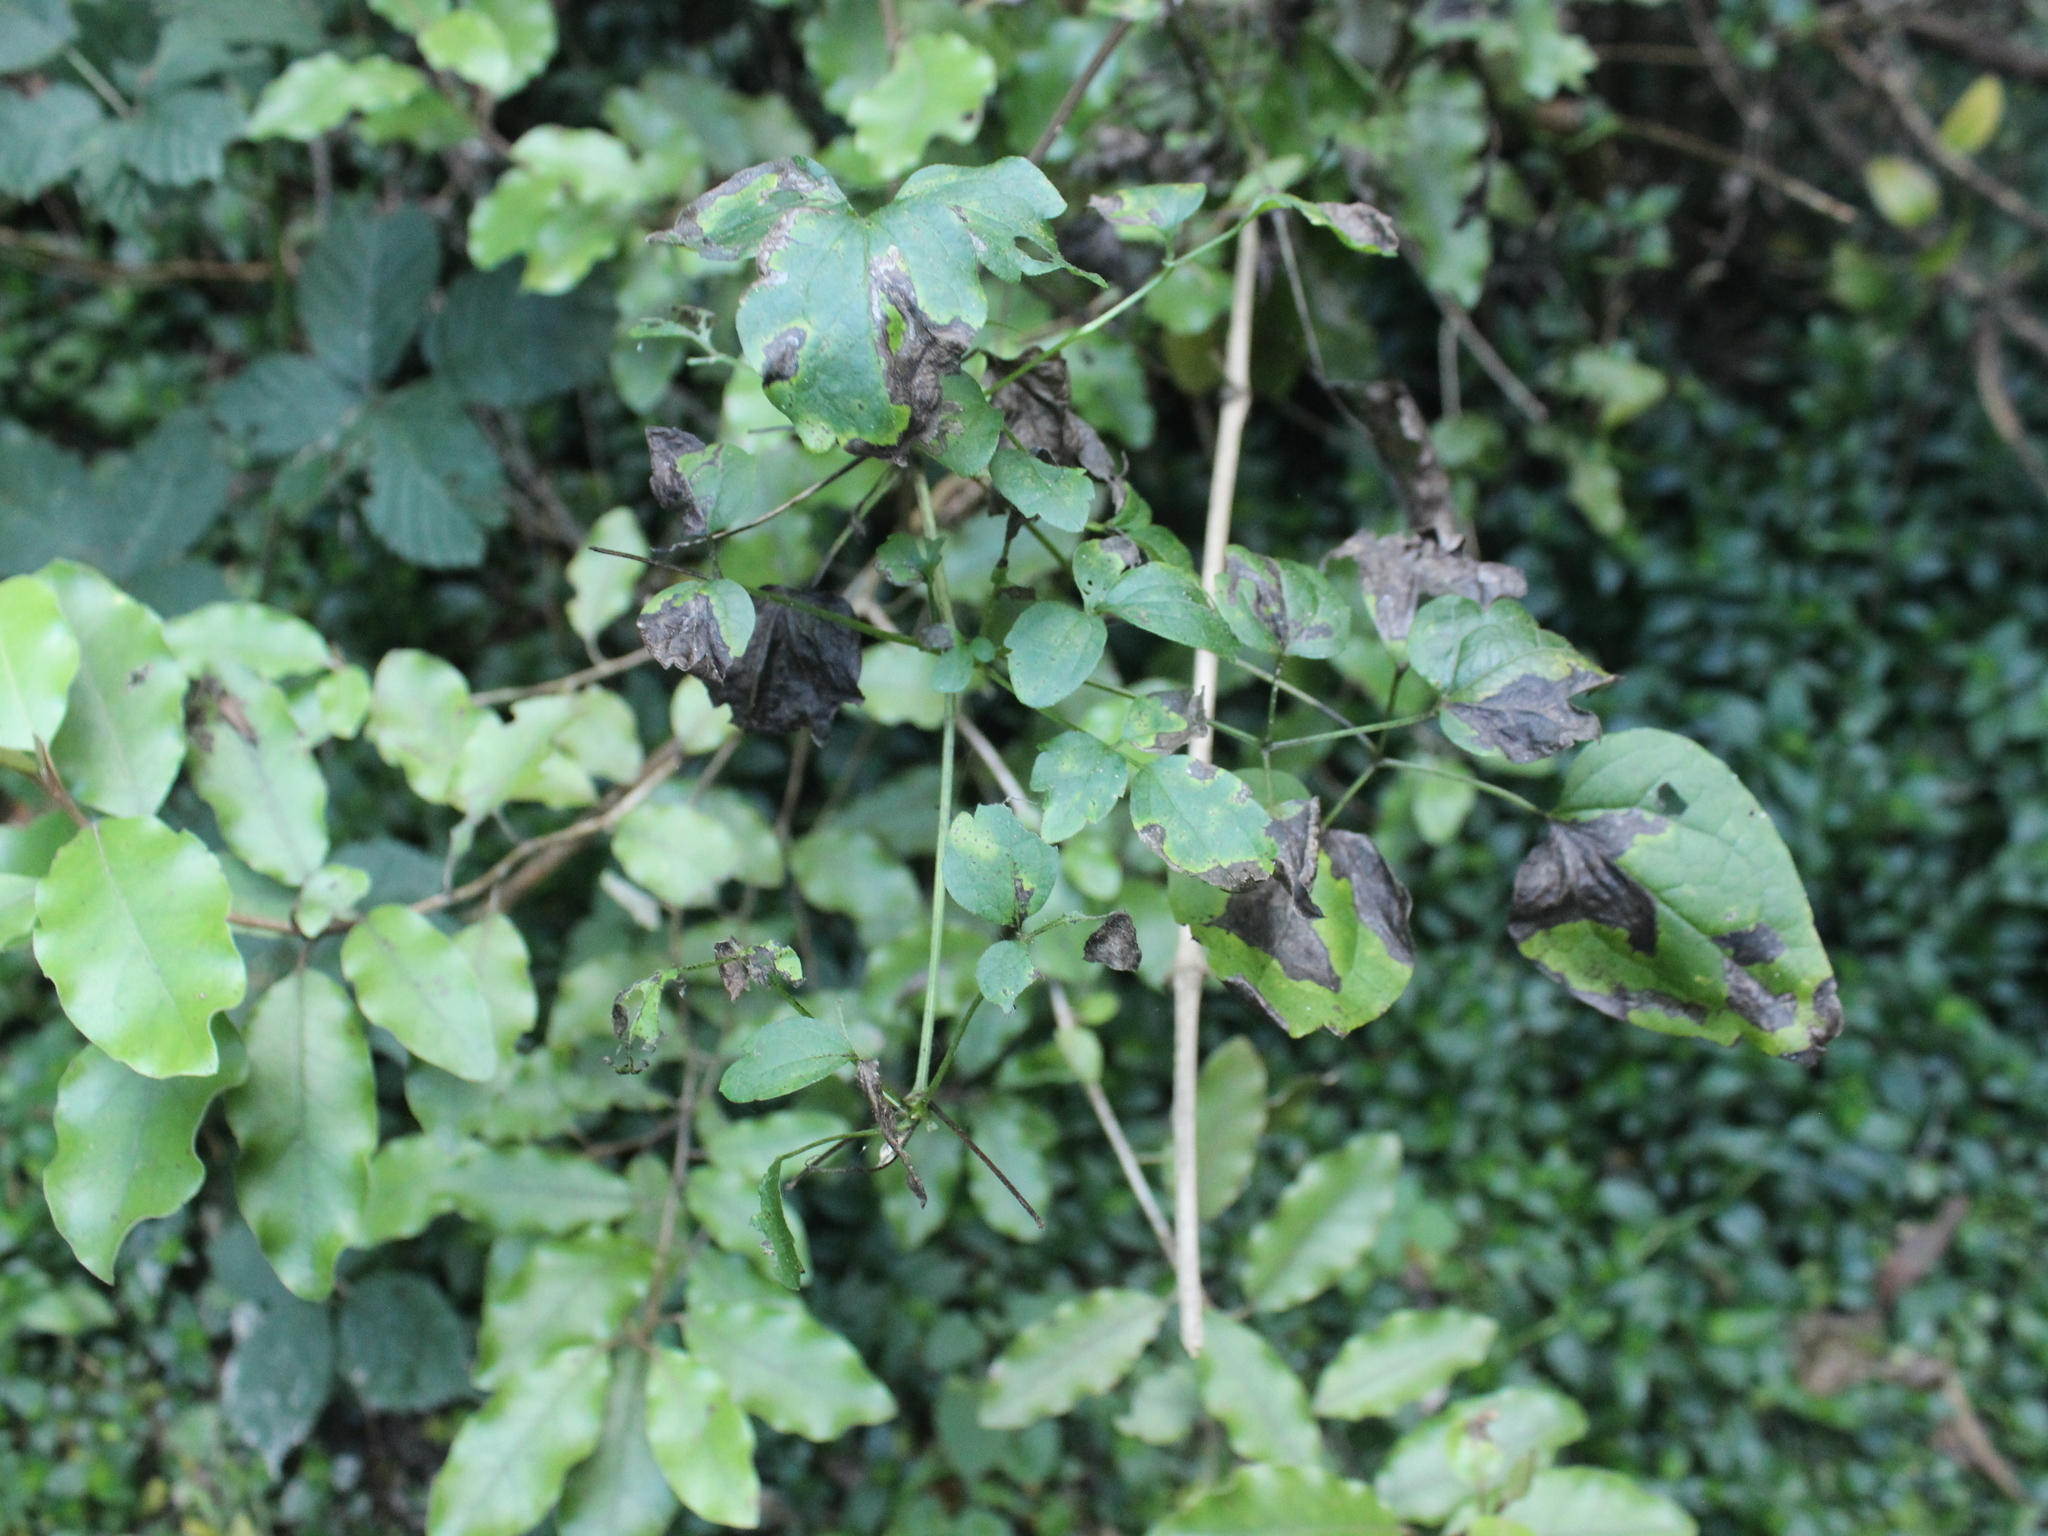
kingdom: Plantae
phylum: Tracheophyta
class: Magnoliopsida
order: Ranunculales
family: Ranunculaceae
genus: Clematis
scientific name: Clematis vitalba
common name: Evergreen clematis
